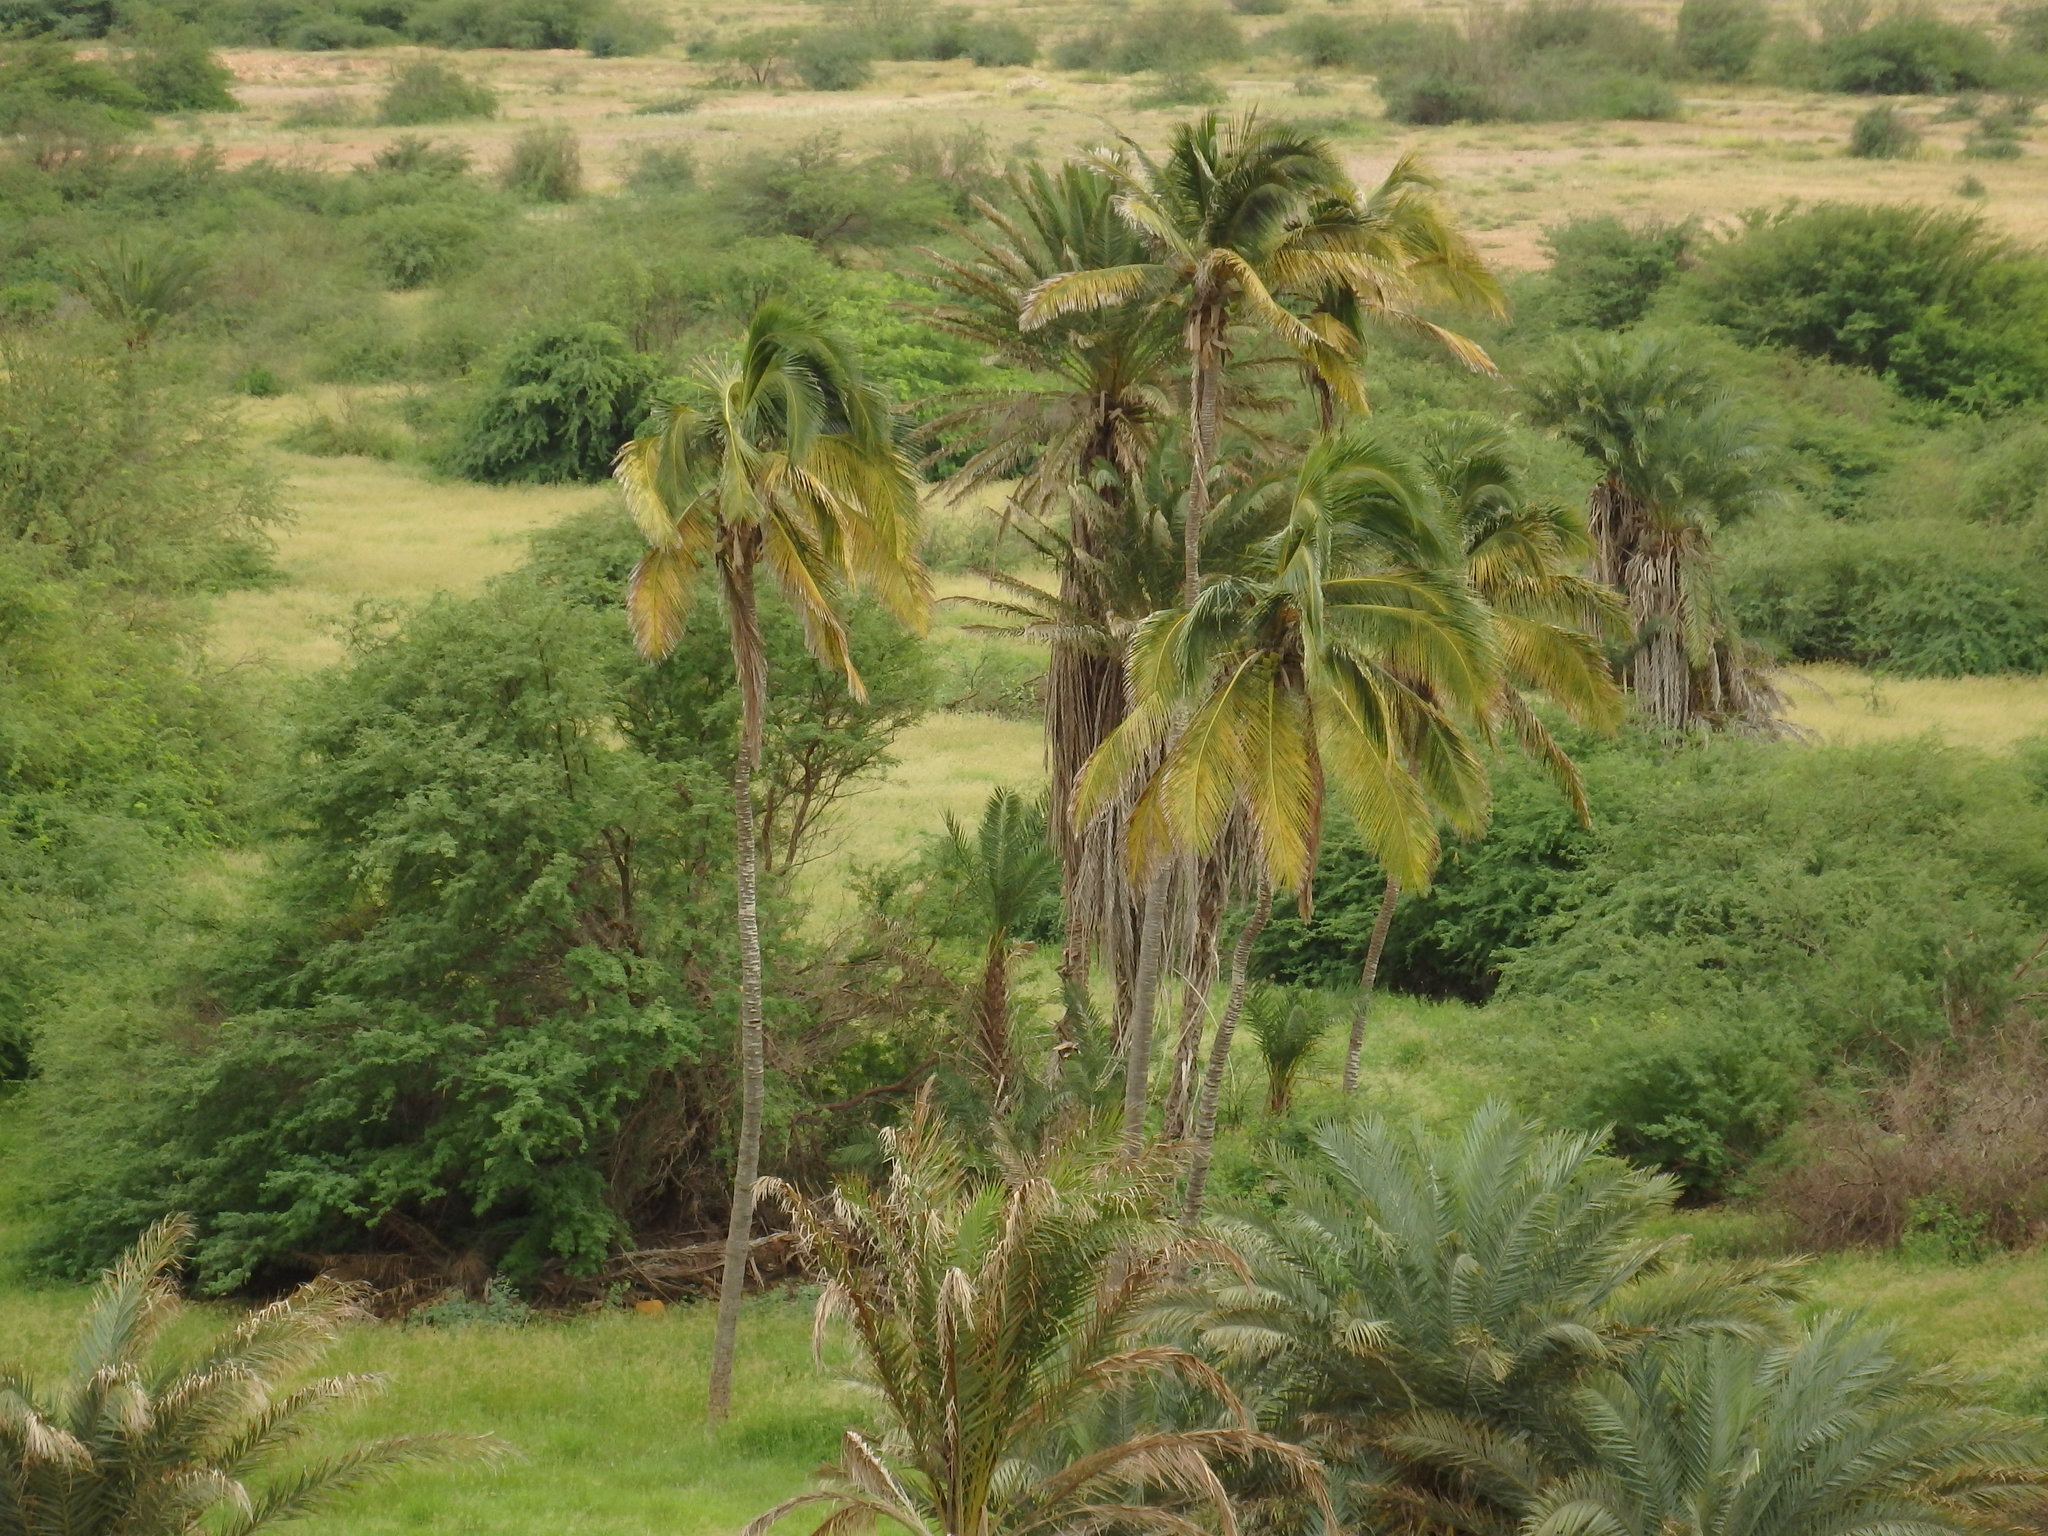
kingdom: Plantae
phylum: Tracheophyta
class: Liliopsida
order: Arecales
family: Arecaceae
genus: Cocos
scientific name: Cocos nucifera
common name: Coconut palm
